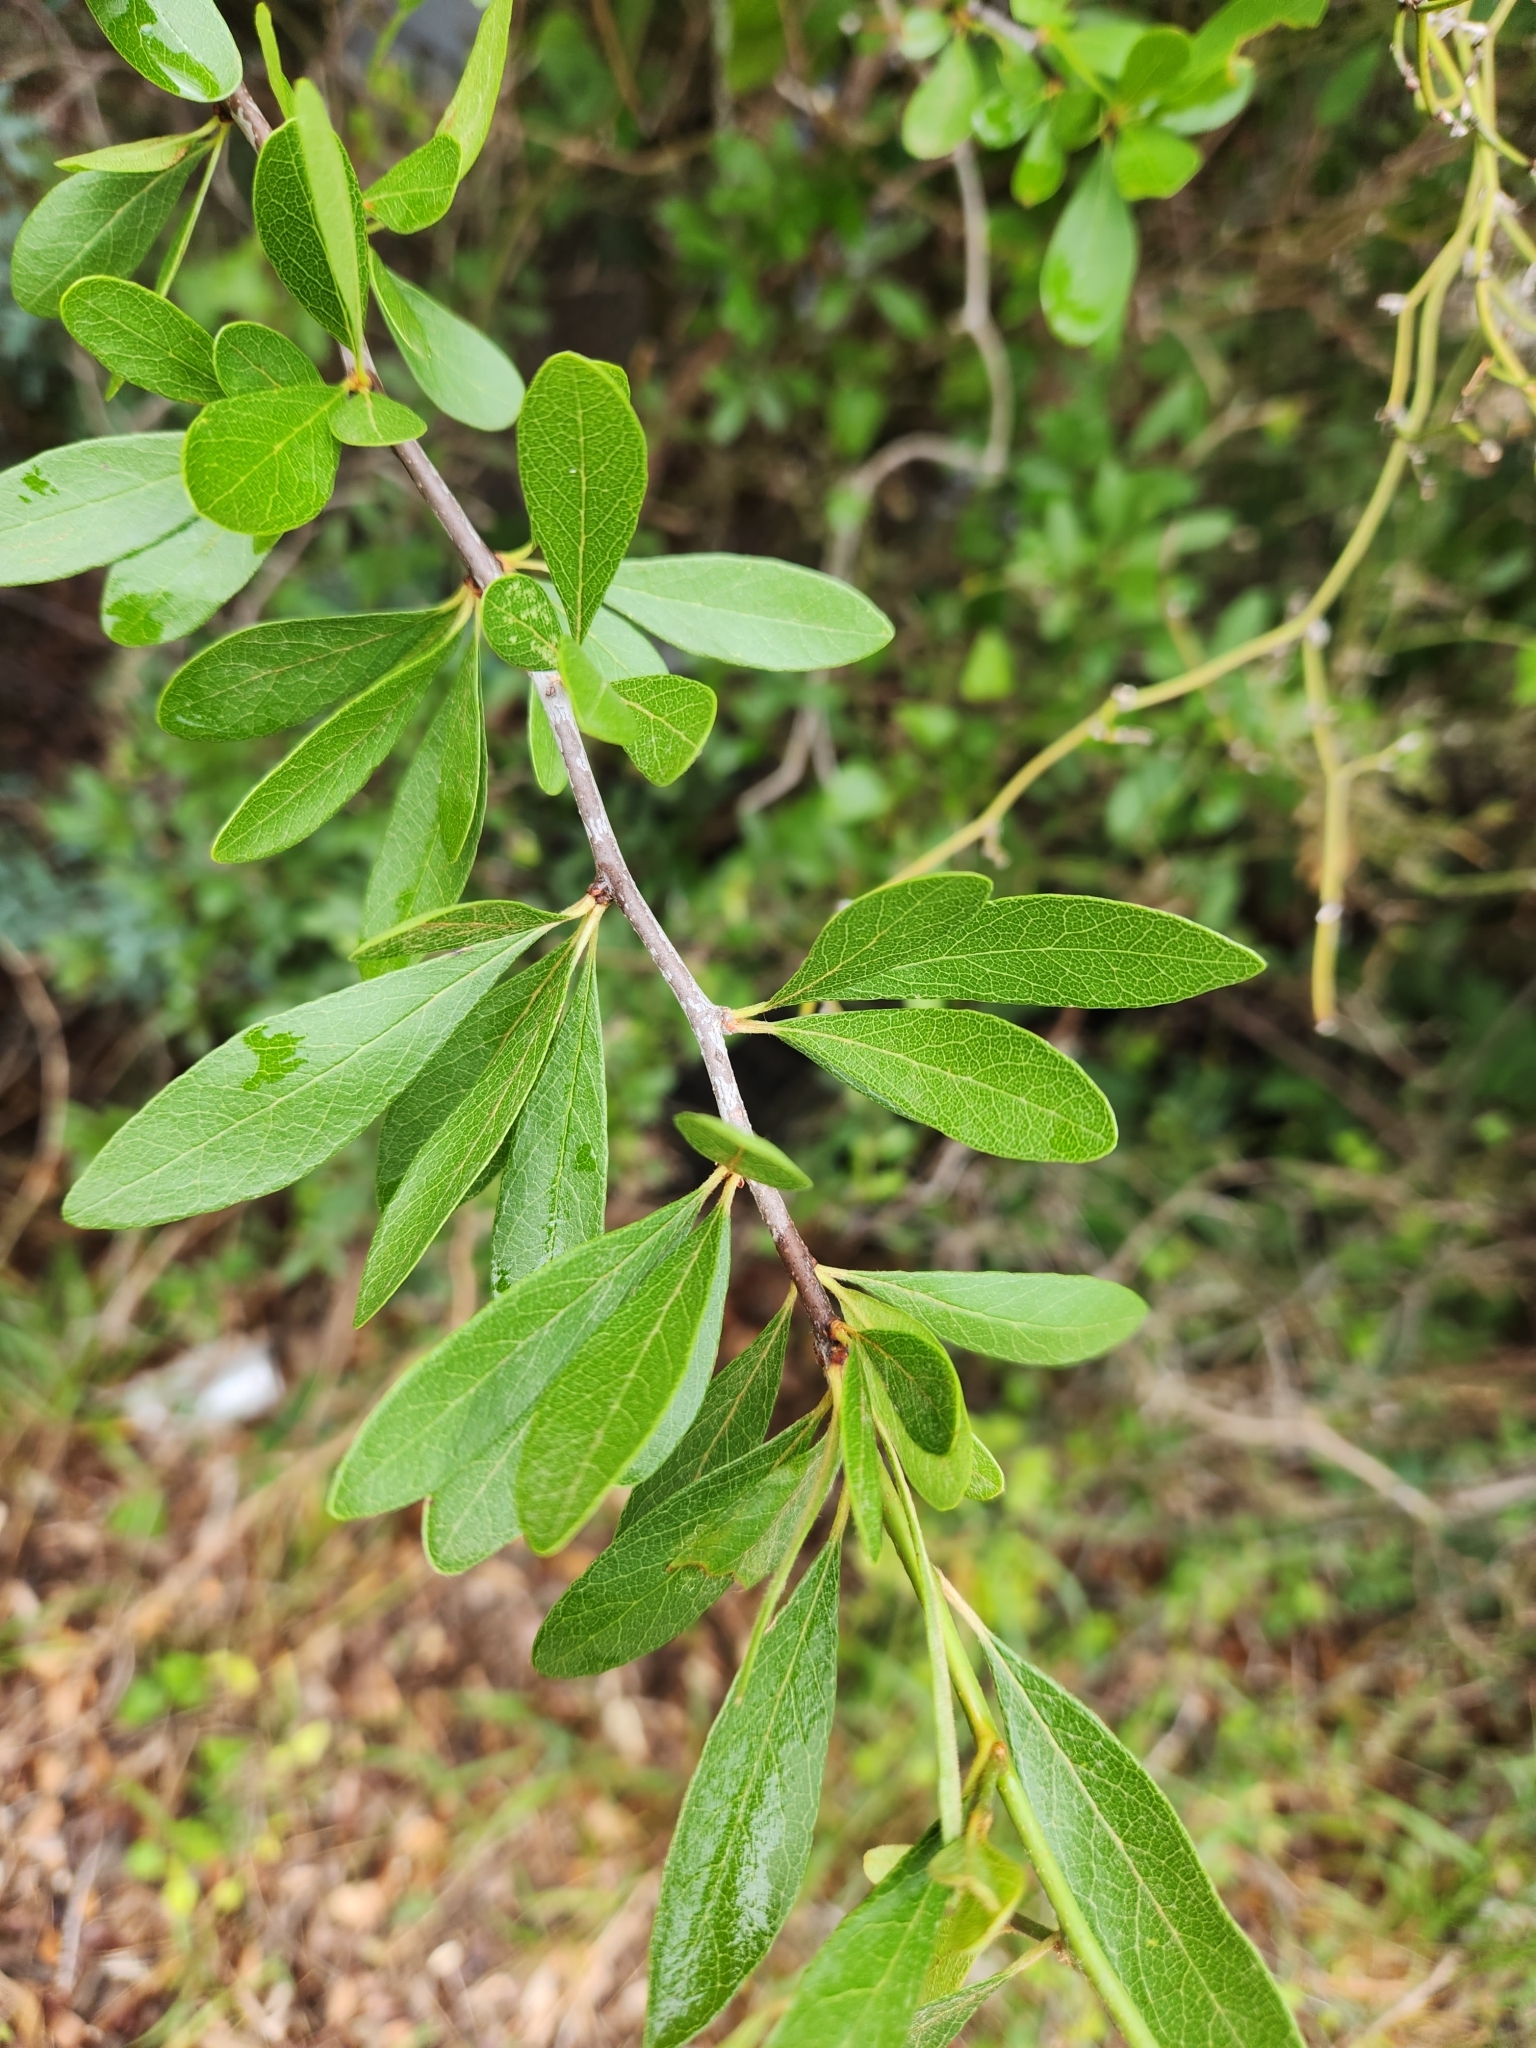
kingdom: Plantae
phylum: Tracheophyta
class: Magnoliopsida
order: Ericales
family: Sapotaceae
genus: Sideroxylon
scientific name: Sideroxylon lanuginosum
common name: Chittamwood
